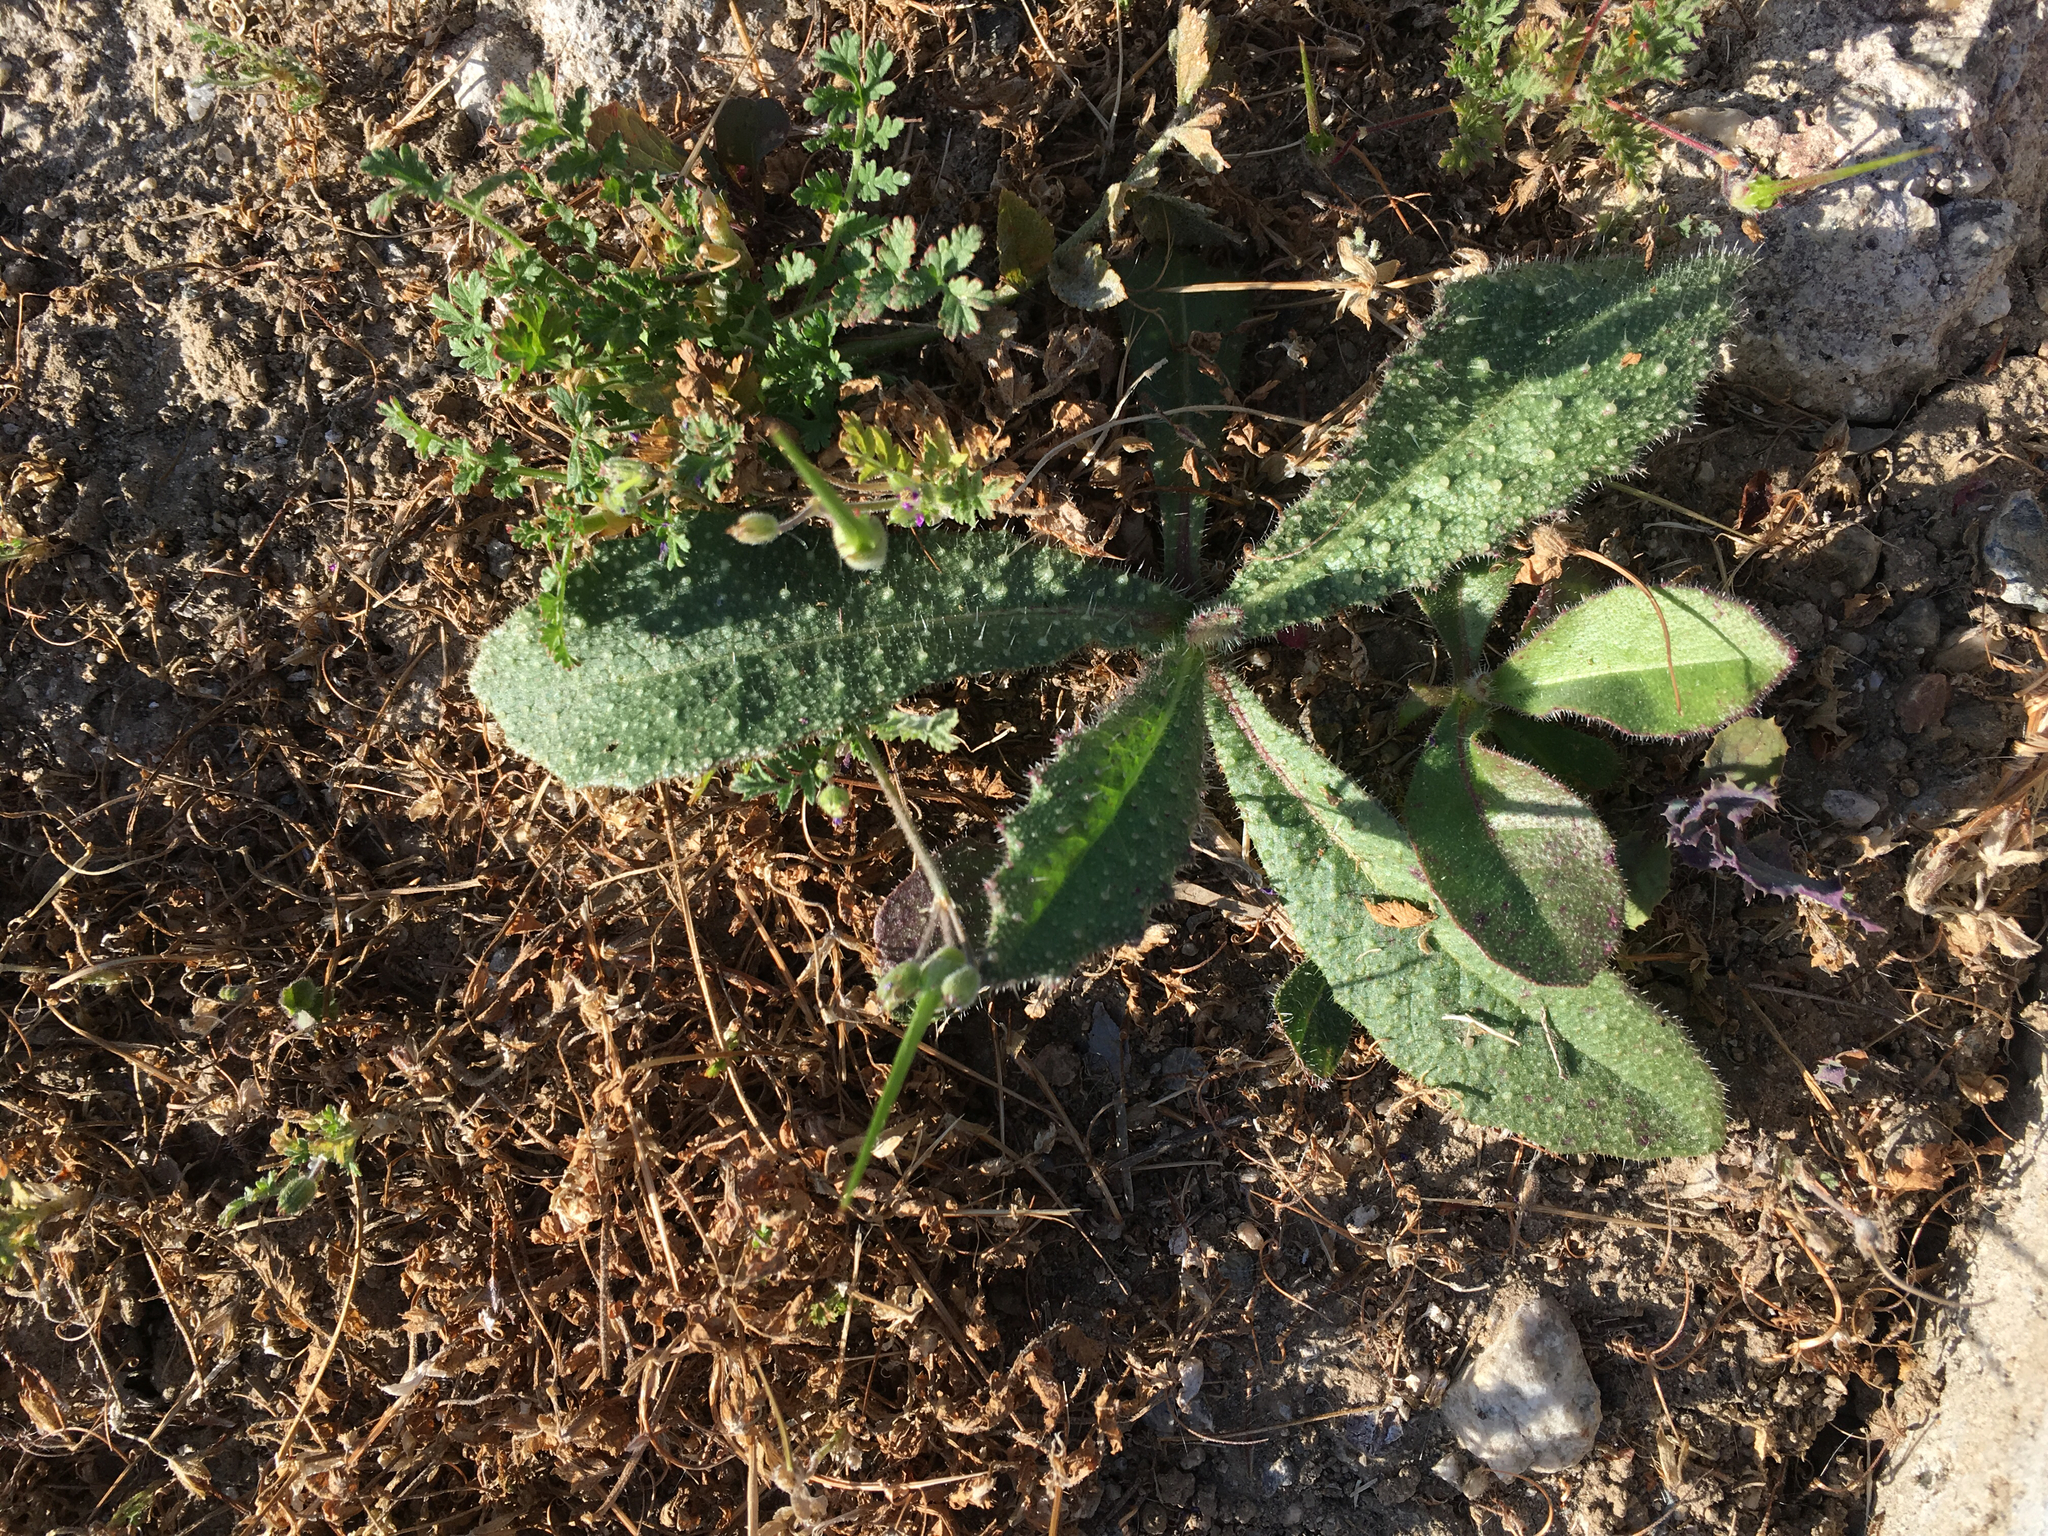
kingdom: Plantae
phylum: Tracheophyta
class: Magnoliopsida
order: Asterales
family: Asteraceae
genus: Helminthotheca
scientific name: Helminthotheca echioides
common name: Ox-tongue
